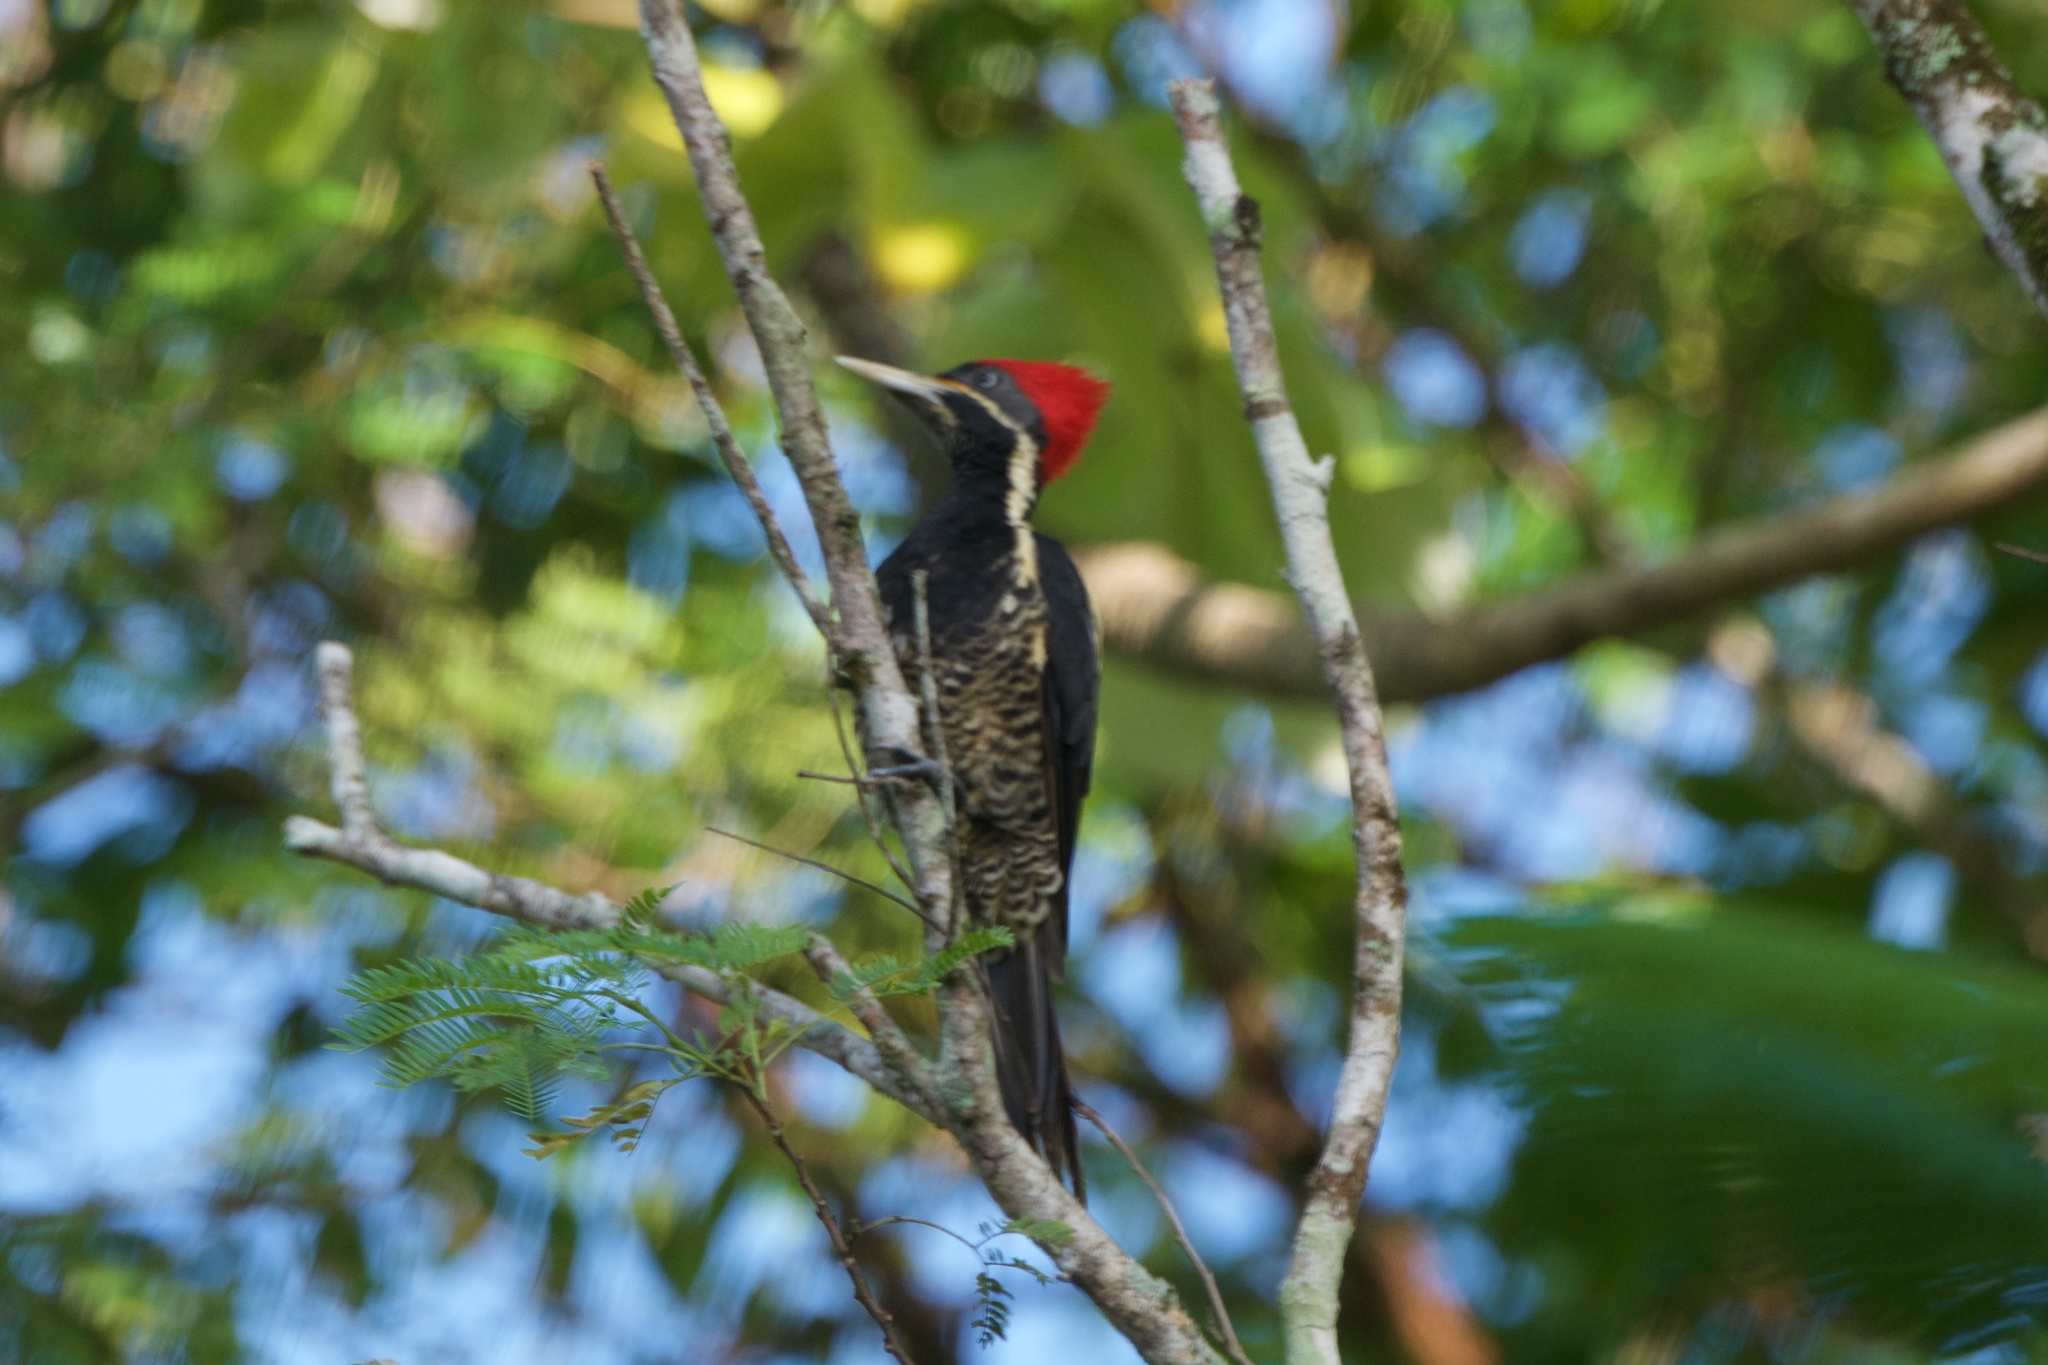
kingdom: Animalia
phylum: Chordata
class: Aves
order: Piciformes
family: Picidae
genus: Dryocopus
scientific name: Dryocopus lineatus
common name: Lineated woodpecker
